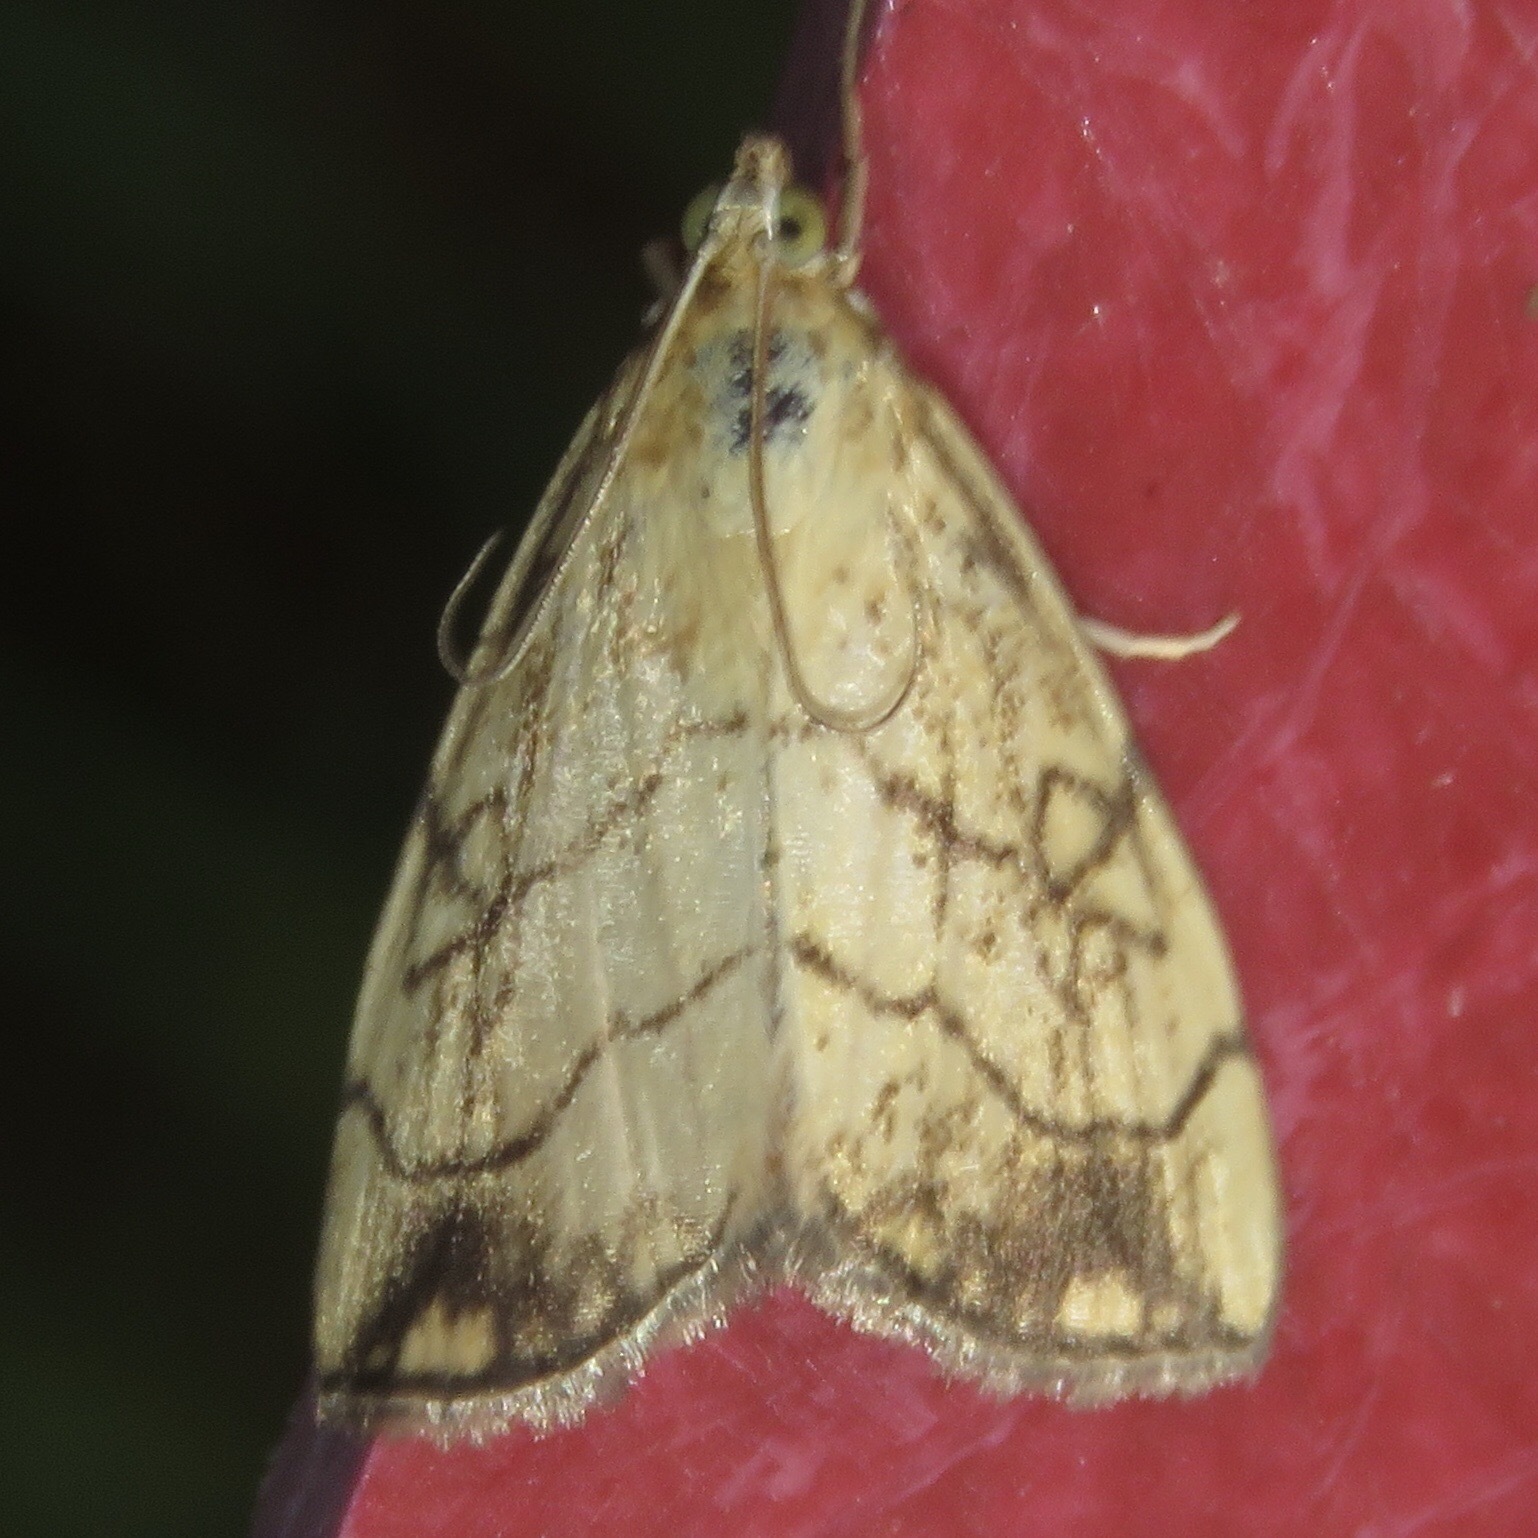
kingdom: Animalia
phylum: Arthropoda
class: Insecta
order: Lepidoptera
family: Crambidae
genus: Evergestis
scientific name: Evergestis pallidata
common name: Chequered pearl
